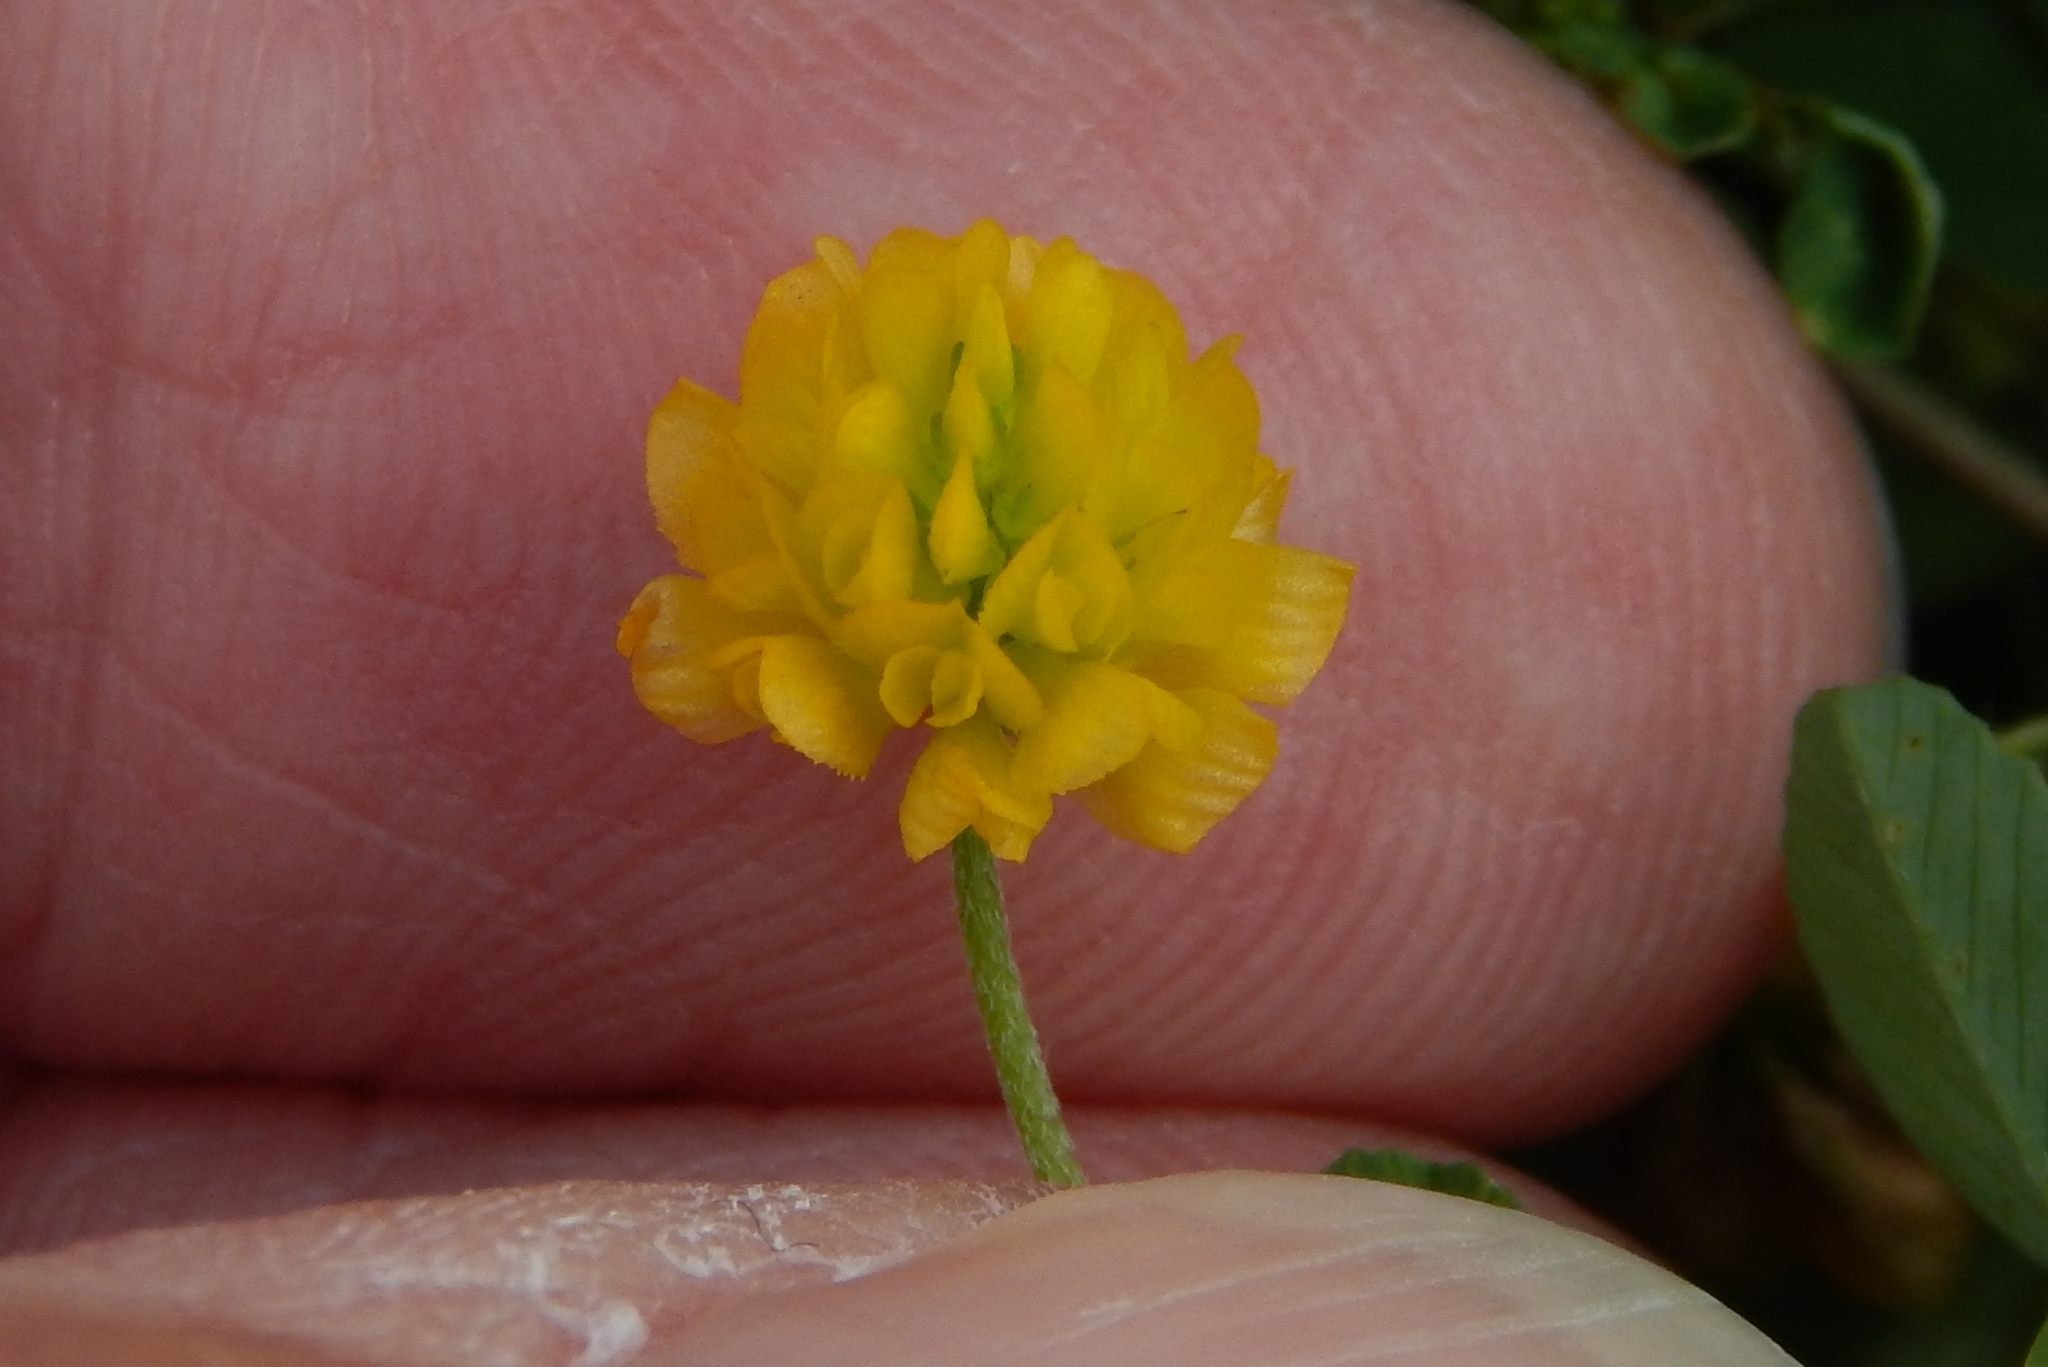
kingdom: Plantae
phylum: Tracheophyta
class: Magnoliopsida
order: Fabales
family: Fabaceae
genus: Trifolium
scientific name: Trifolium campestre
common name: Field clover
